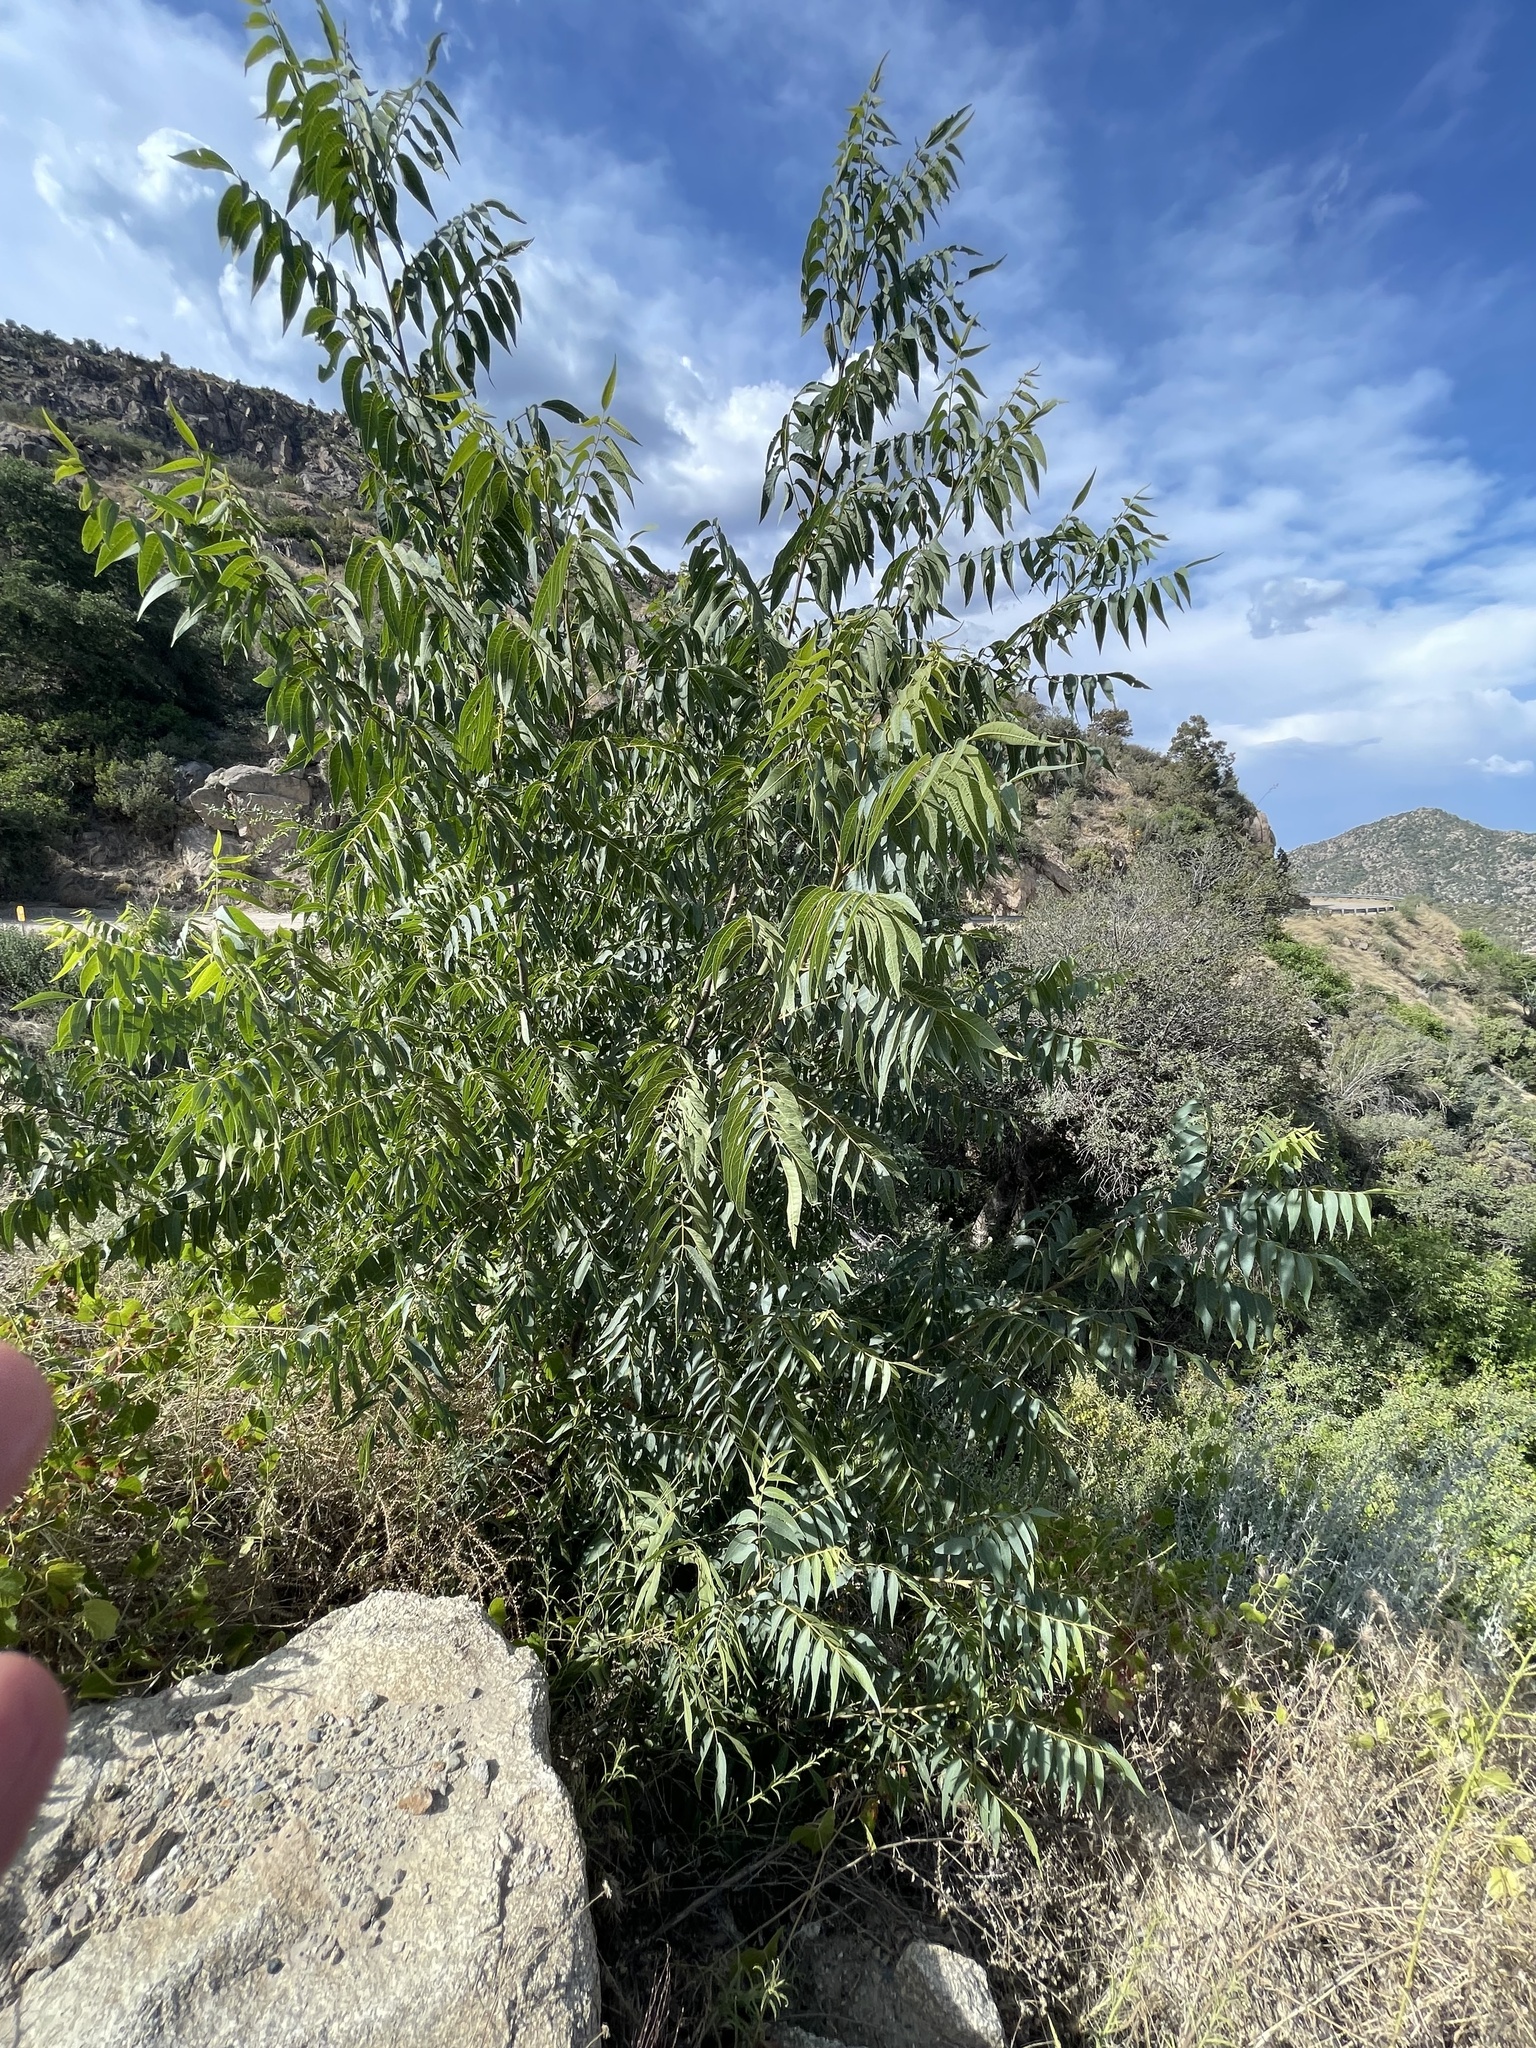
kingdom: Plantae
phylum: Tracheophyta
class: Magnoliopsida
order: Fagales
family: Juglandaceae
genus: Juglans
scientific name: Juglans major
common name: Arizona walnut
